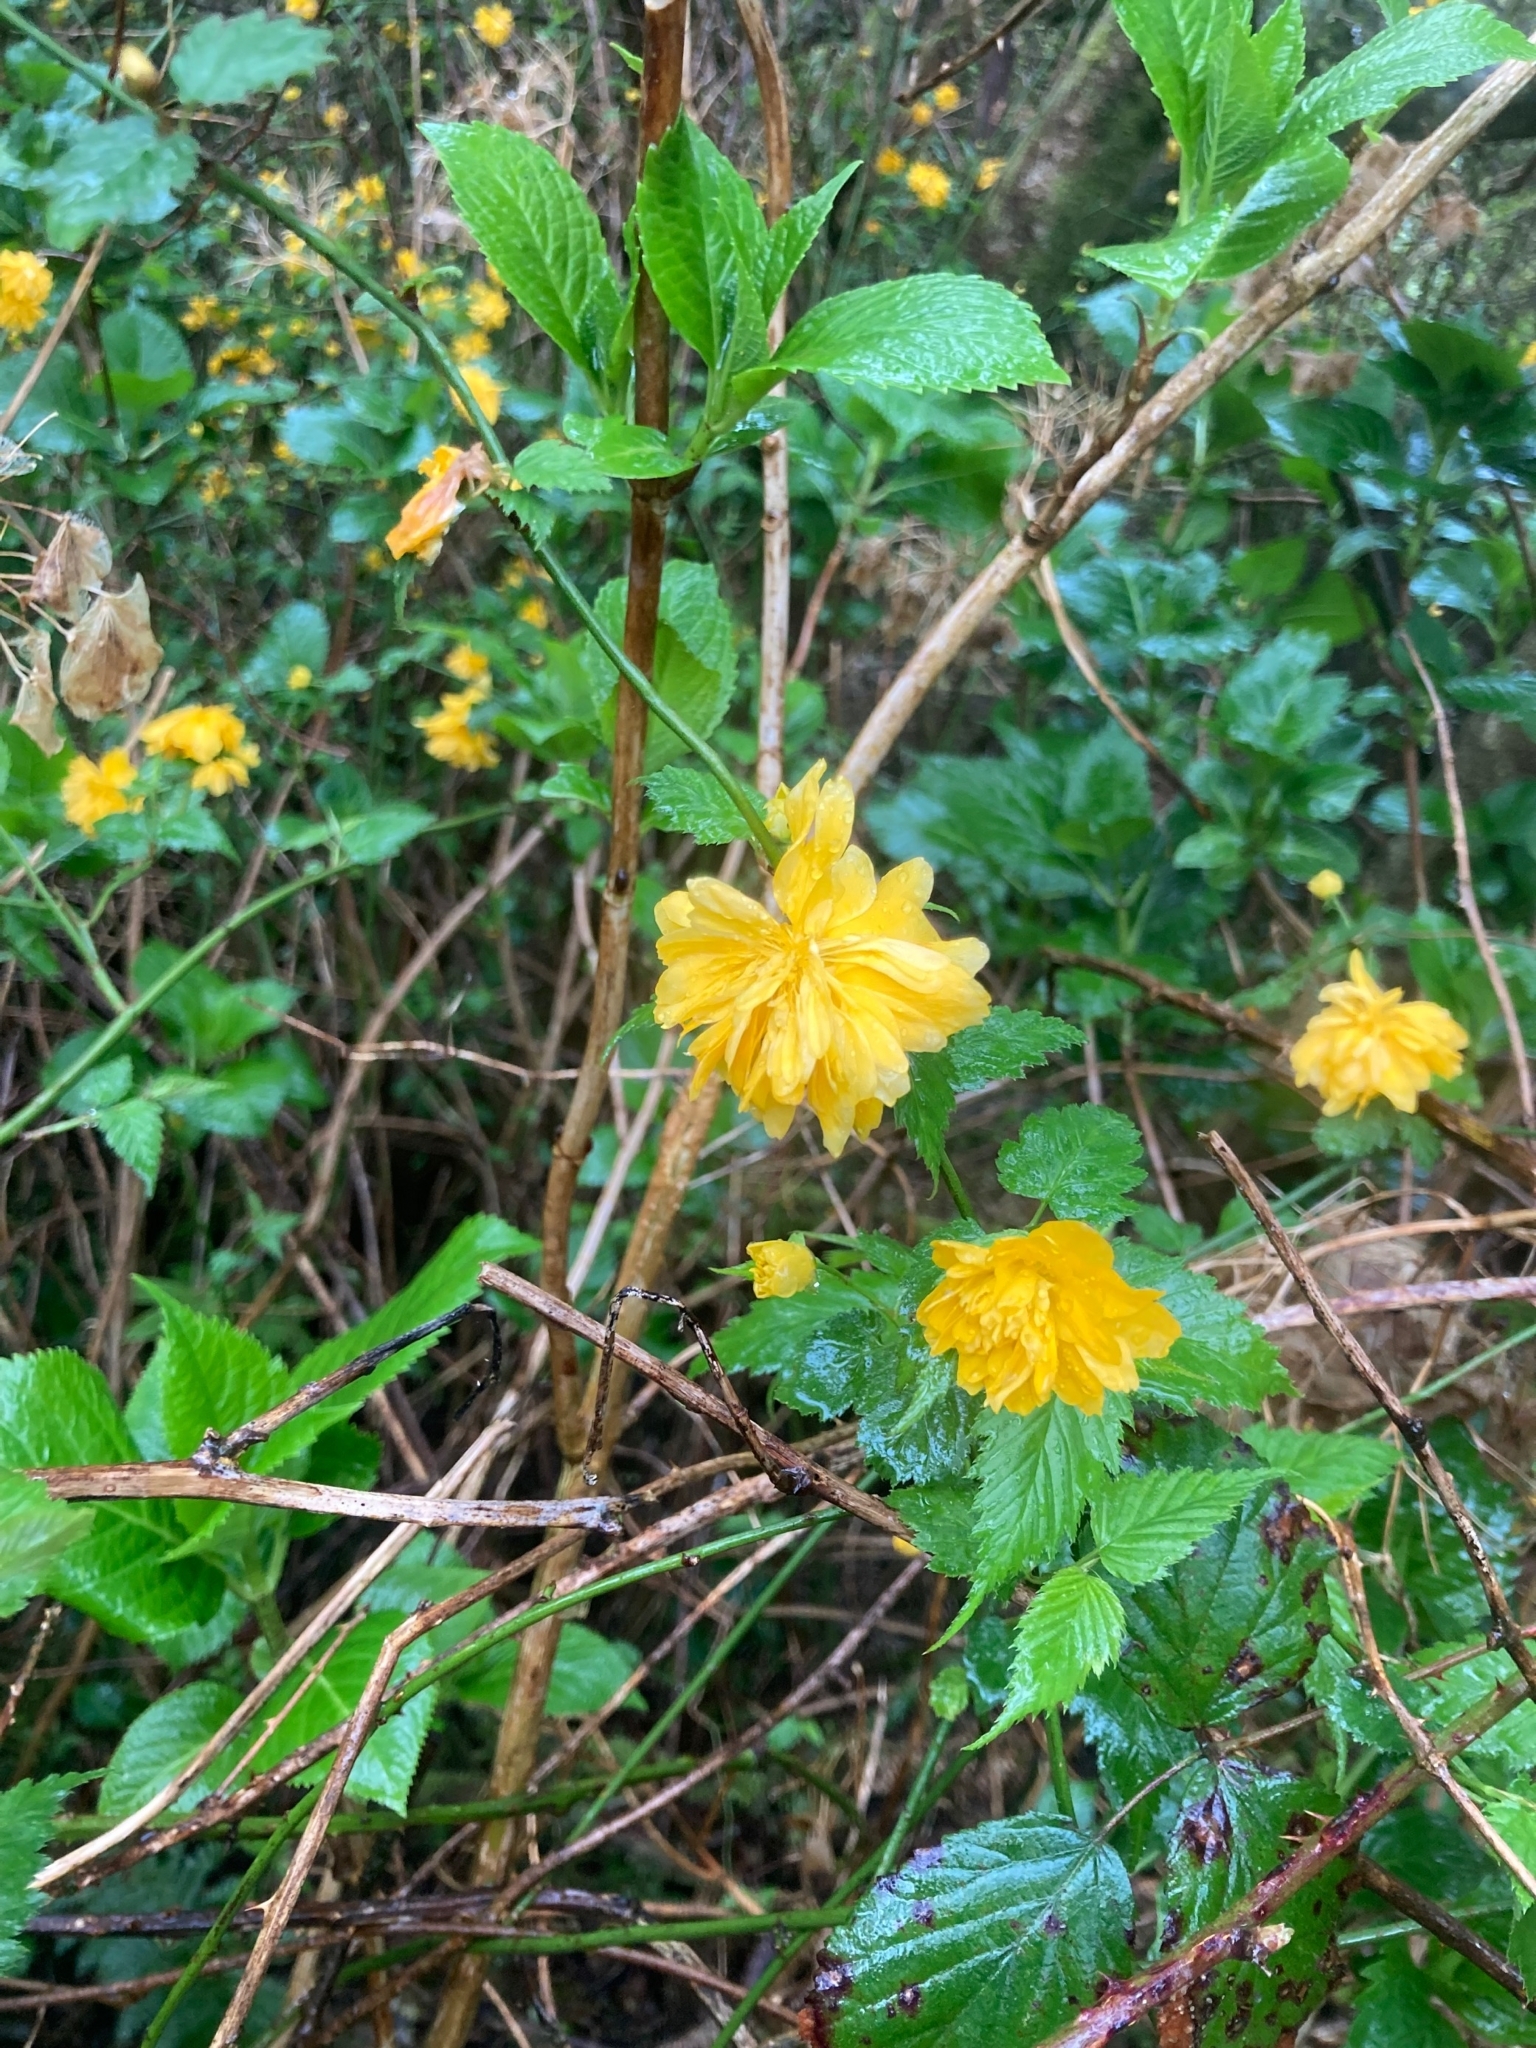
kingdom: Plantae
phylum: Tracheophyta
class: Magnoliopsida
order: Rosales
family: Rosaceae
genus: Kerria
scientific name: Kerria japonica
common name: Japanese kerria
